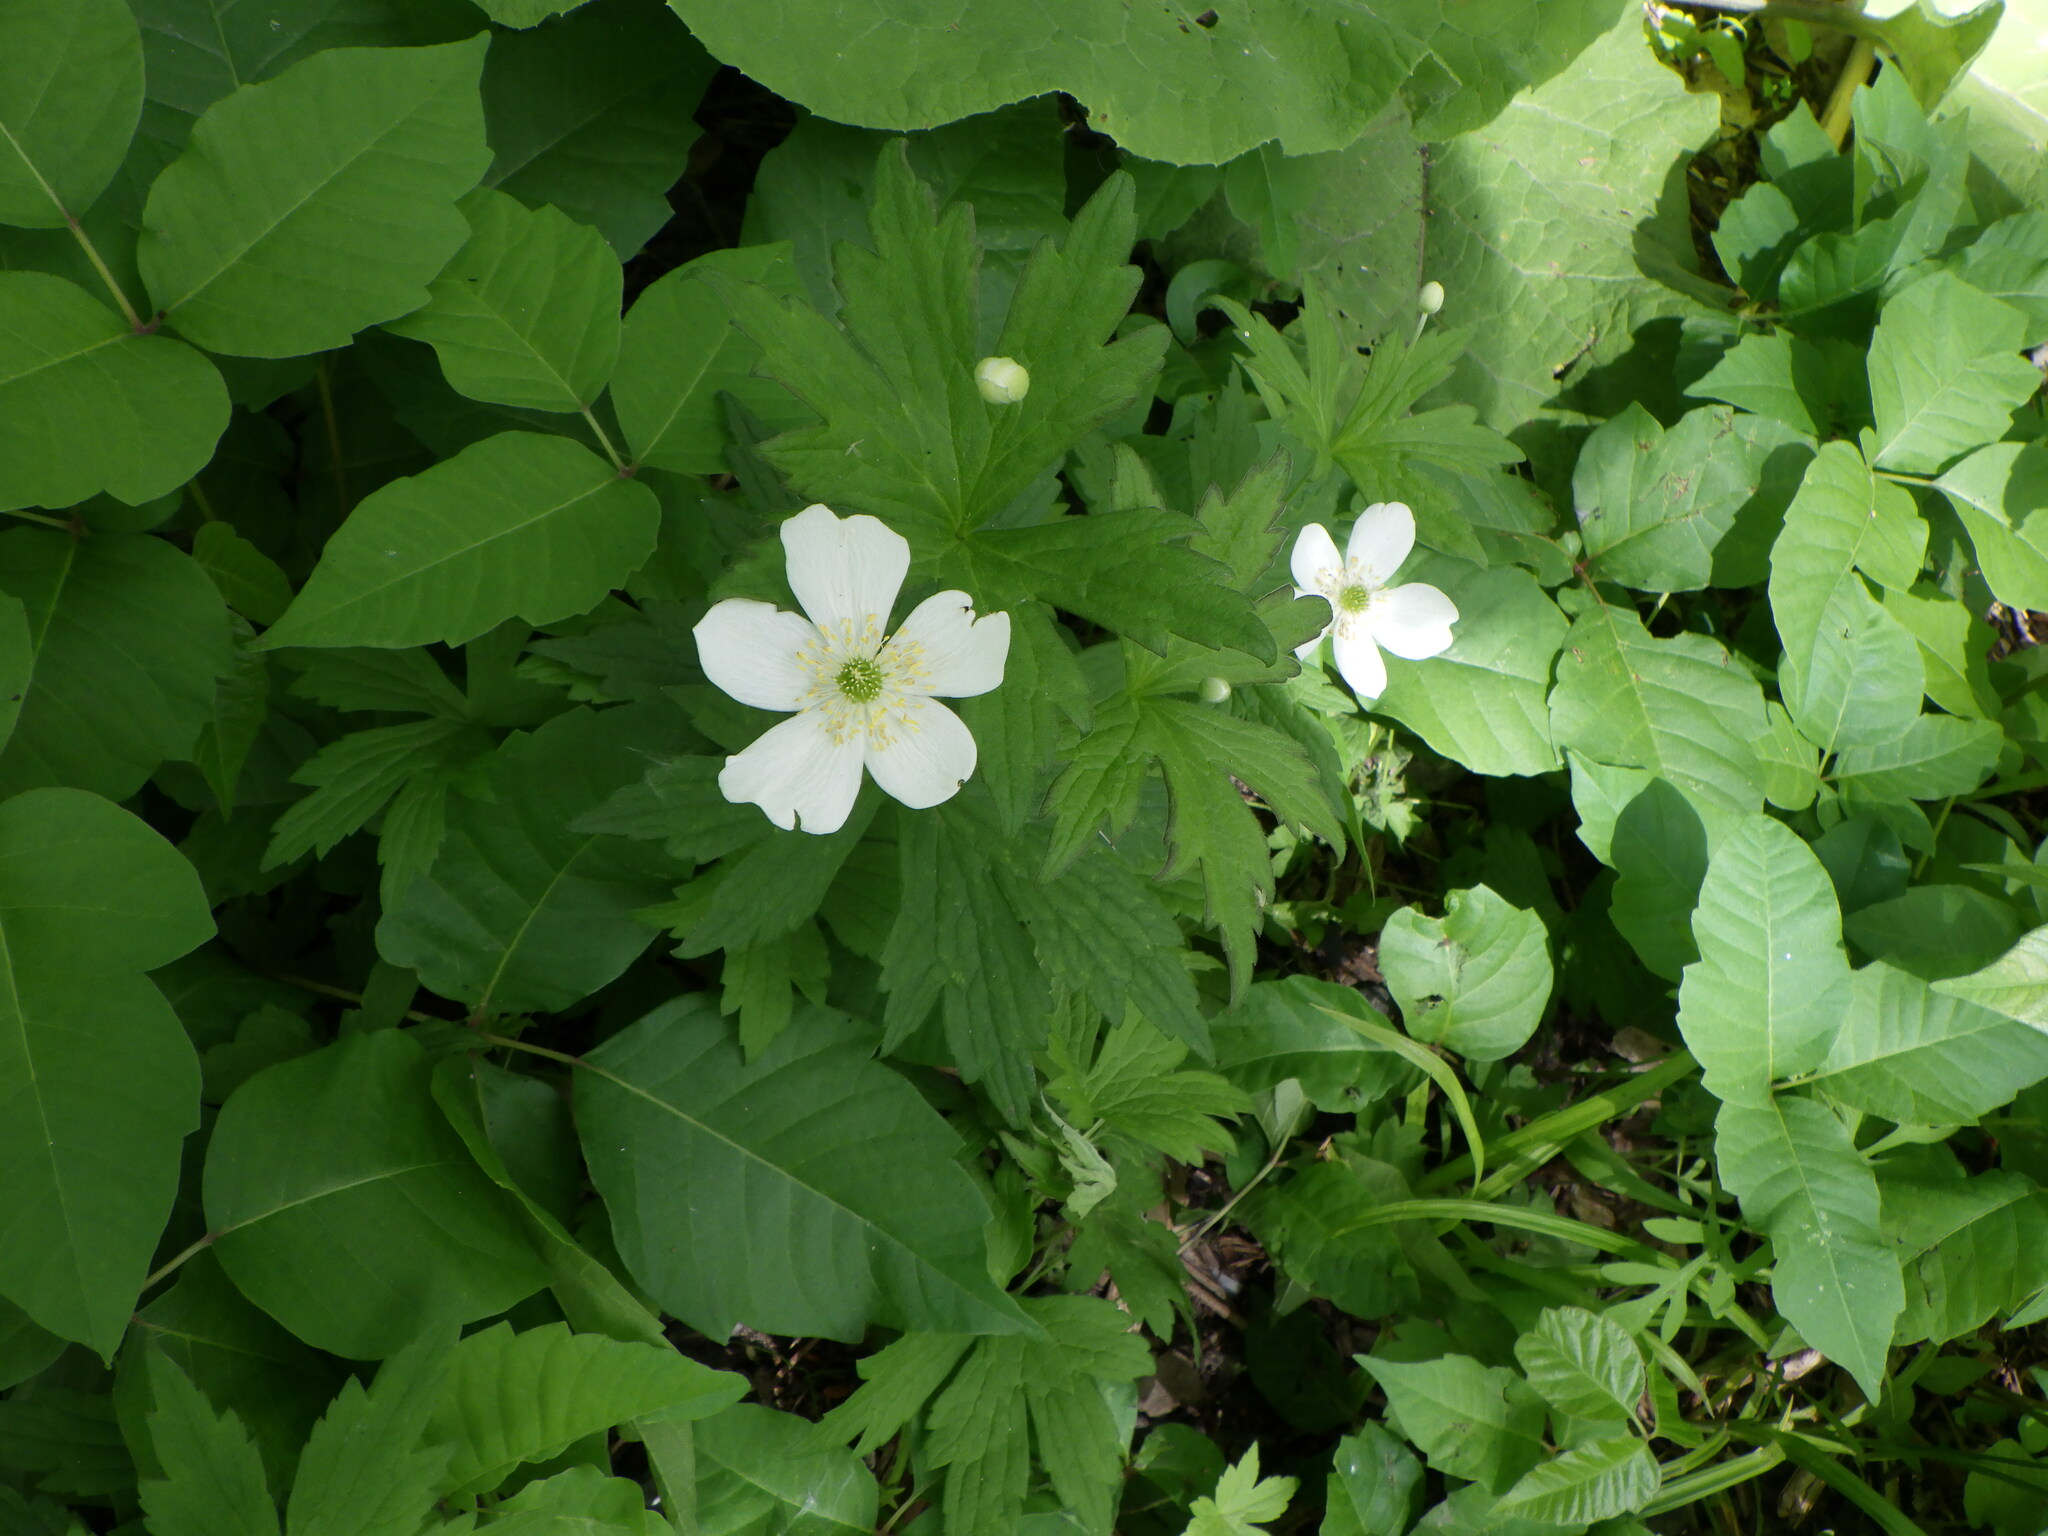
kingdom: Plantae
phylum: Tracheophyta
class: Magnoliopsida
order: Ranunculales
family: Ranunculaceae
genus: Anemonastrum
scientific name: Anemonastrum canadense
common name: Canada anemone
